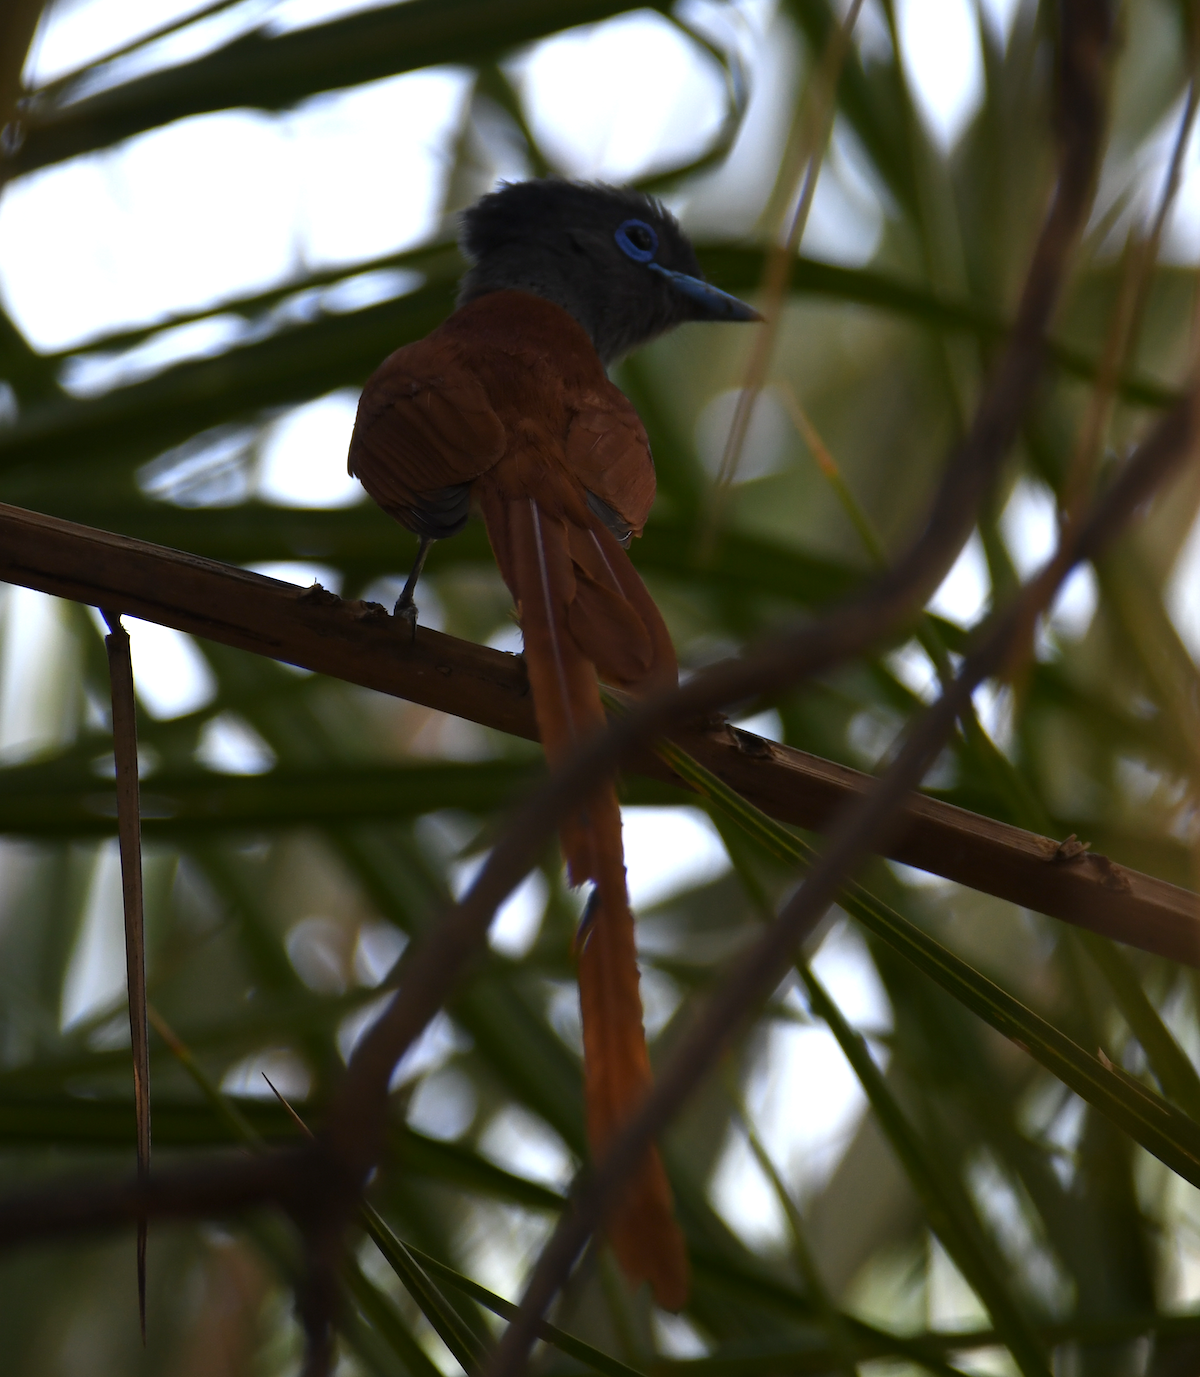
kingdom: Animalia
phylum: Chordata
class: Aves
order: Passeriformes
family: Monarchidae
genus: Terpsiphone
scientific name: Terpsiphone viridis
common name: African paradise flycatcher
